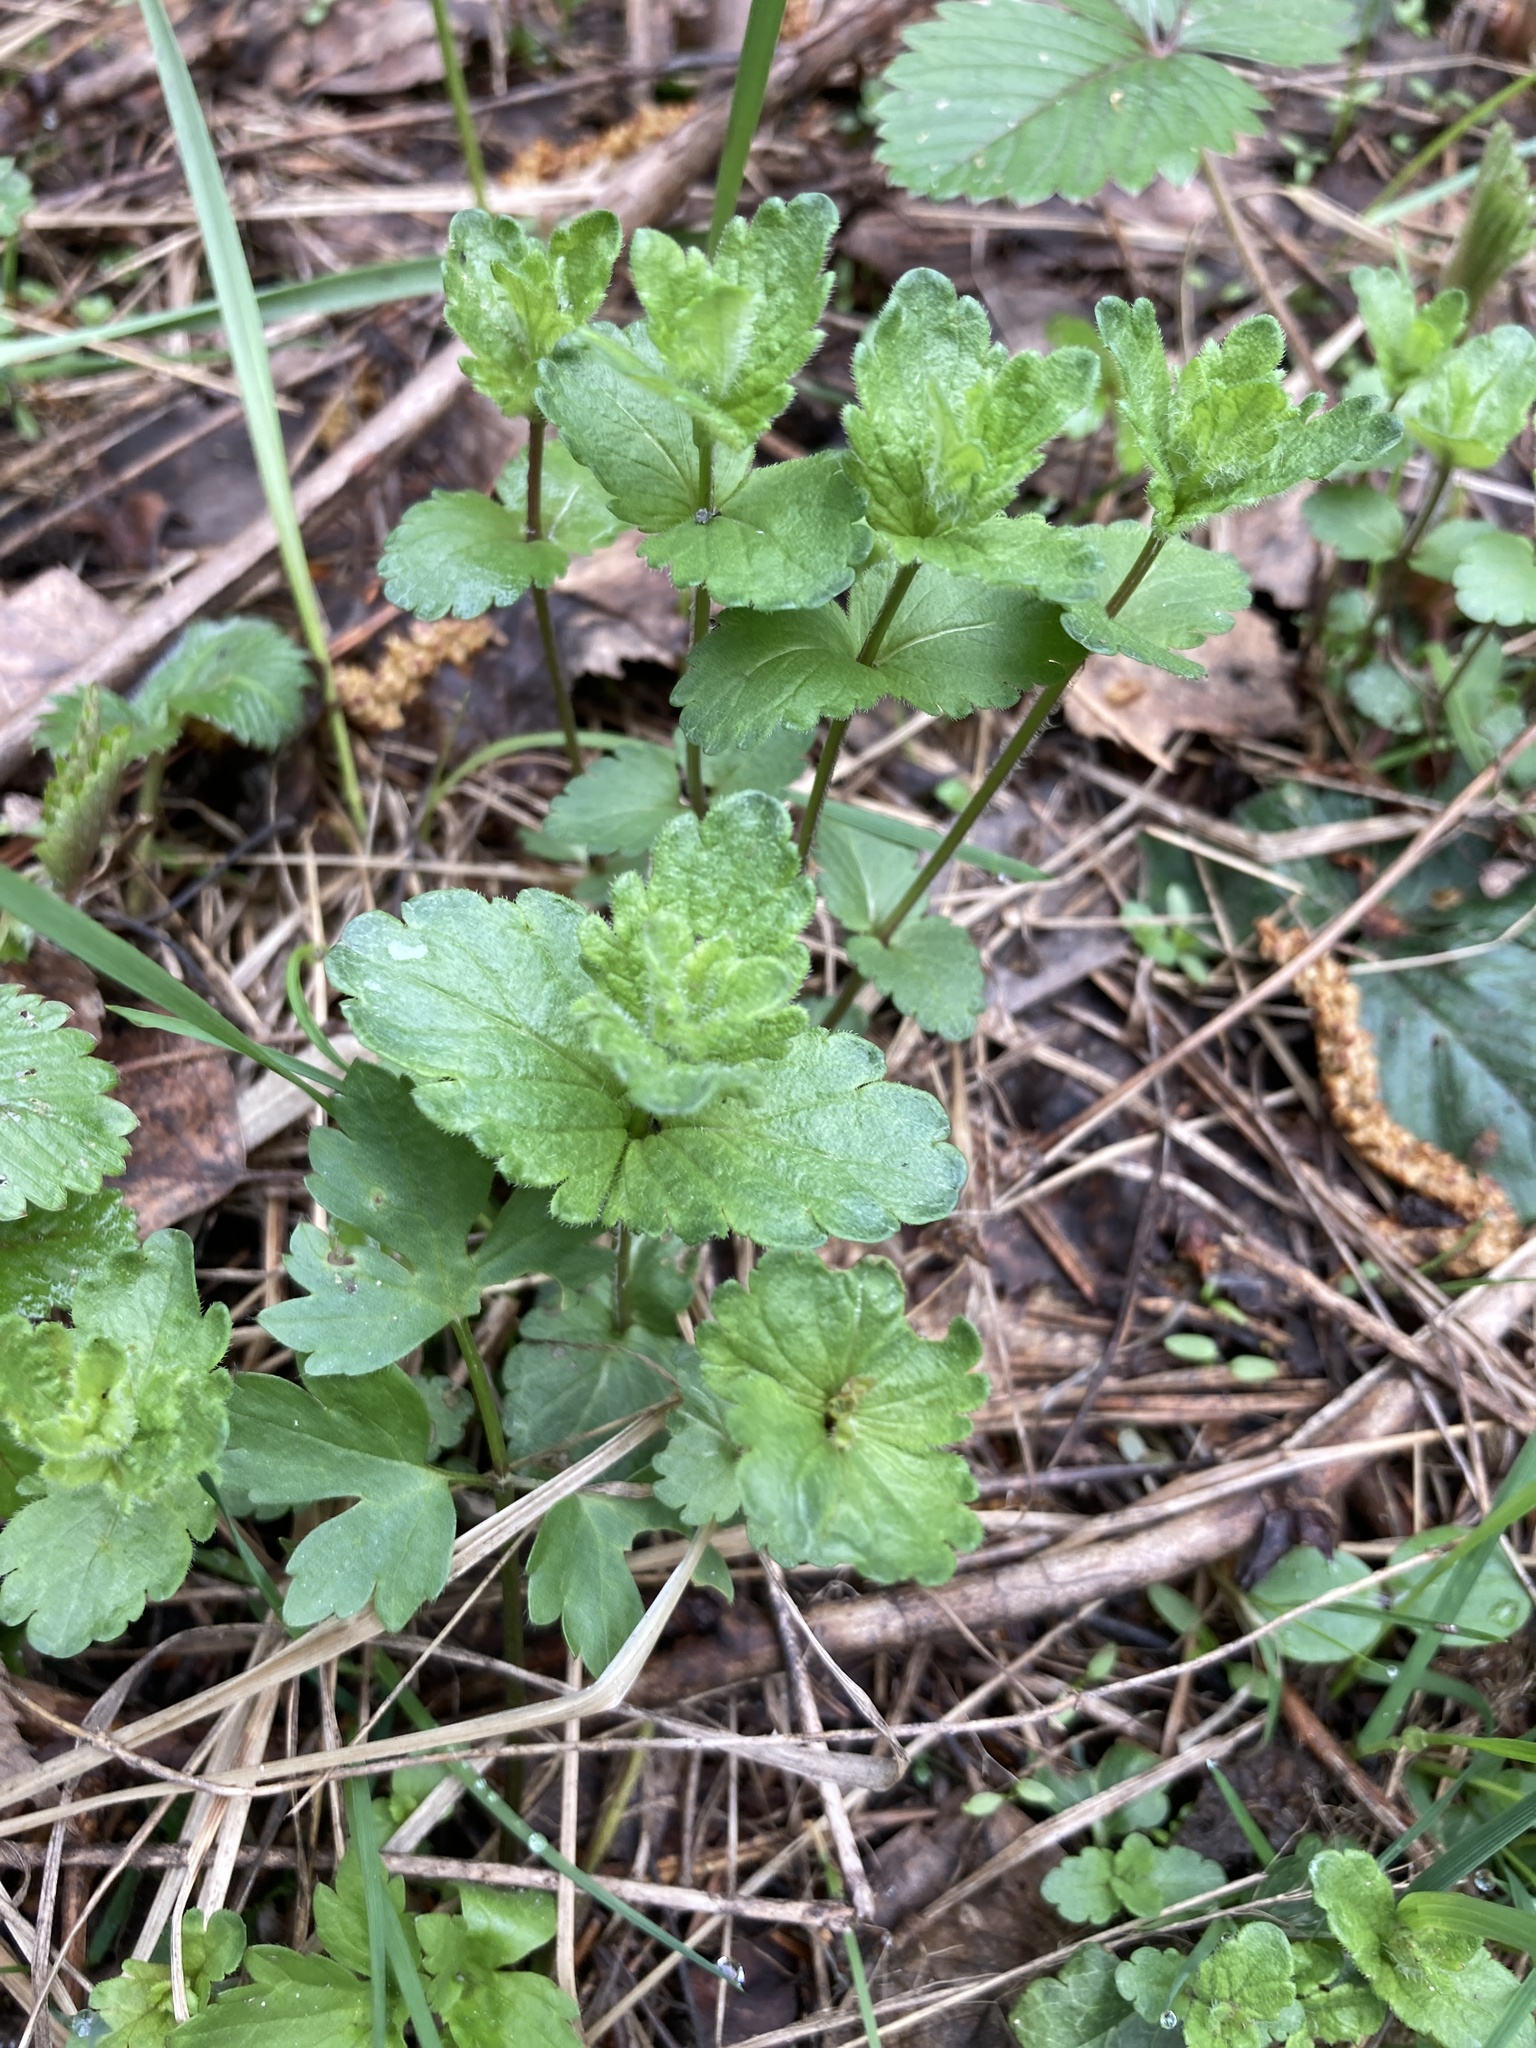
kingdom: Plantae
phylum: Tracheophyta
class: Magnoliopsida
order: Lamiales
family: Plantaginaceae
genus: Veronica
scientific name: Veronica chamaedrys
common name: Germander speedwell
